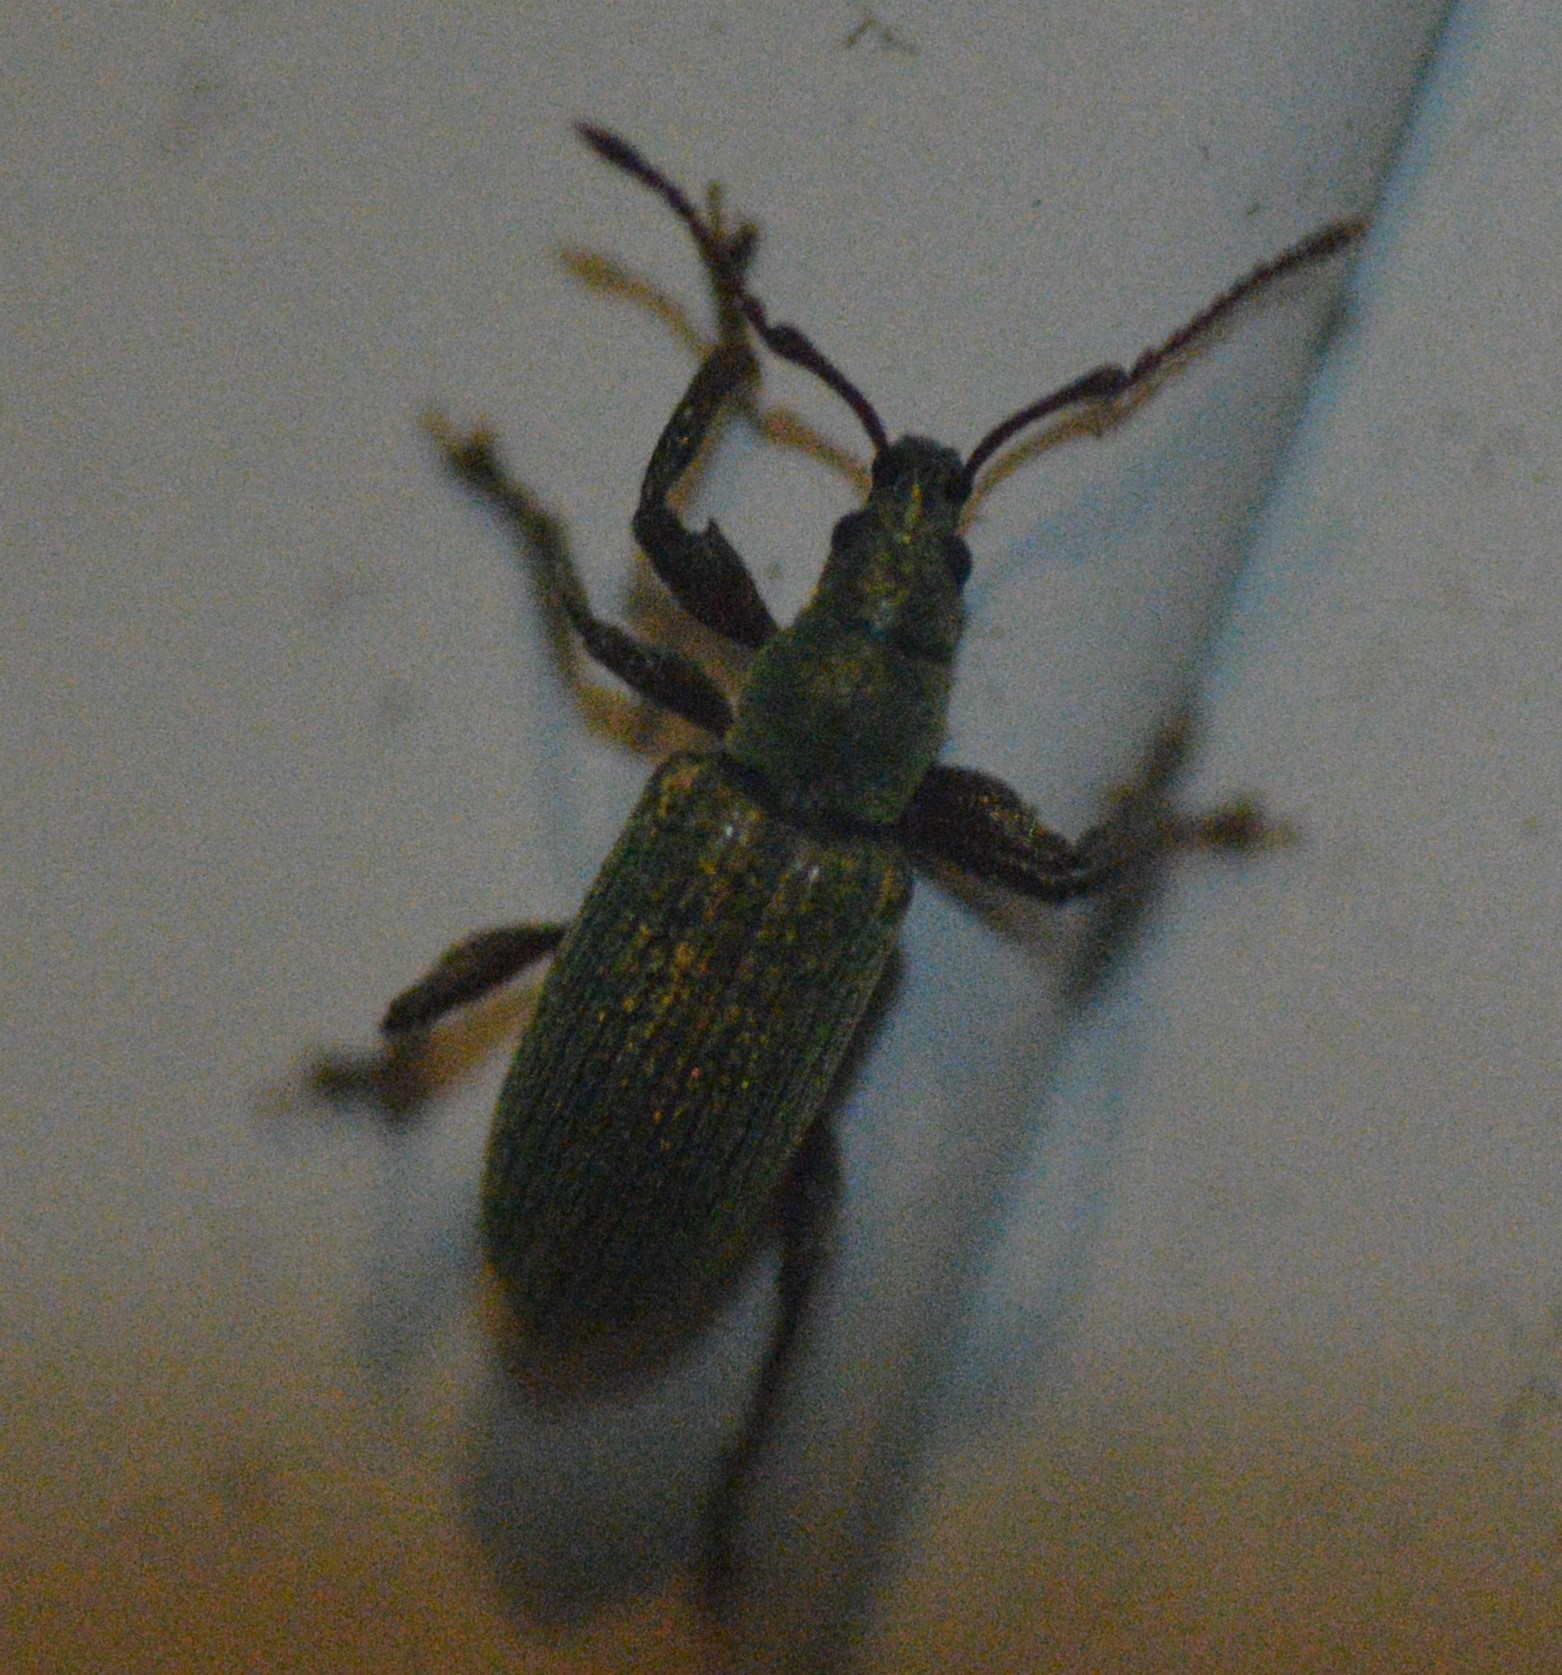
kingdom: Animalia
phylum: Arthropoda
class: Insecta
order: Coleoptera
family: Curculionidae
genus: Parascythopus
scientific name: Parascythopus intrusus
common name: Weevil
